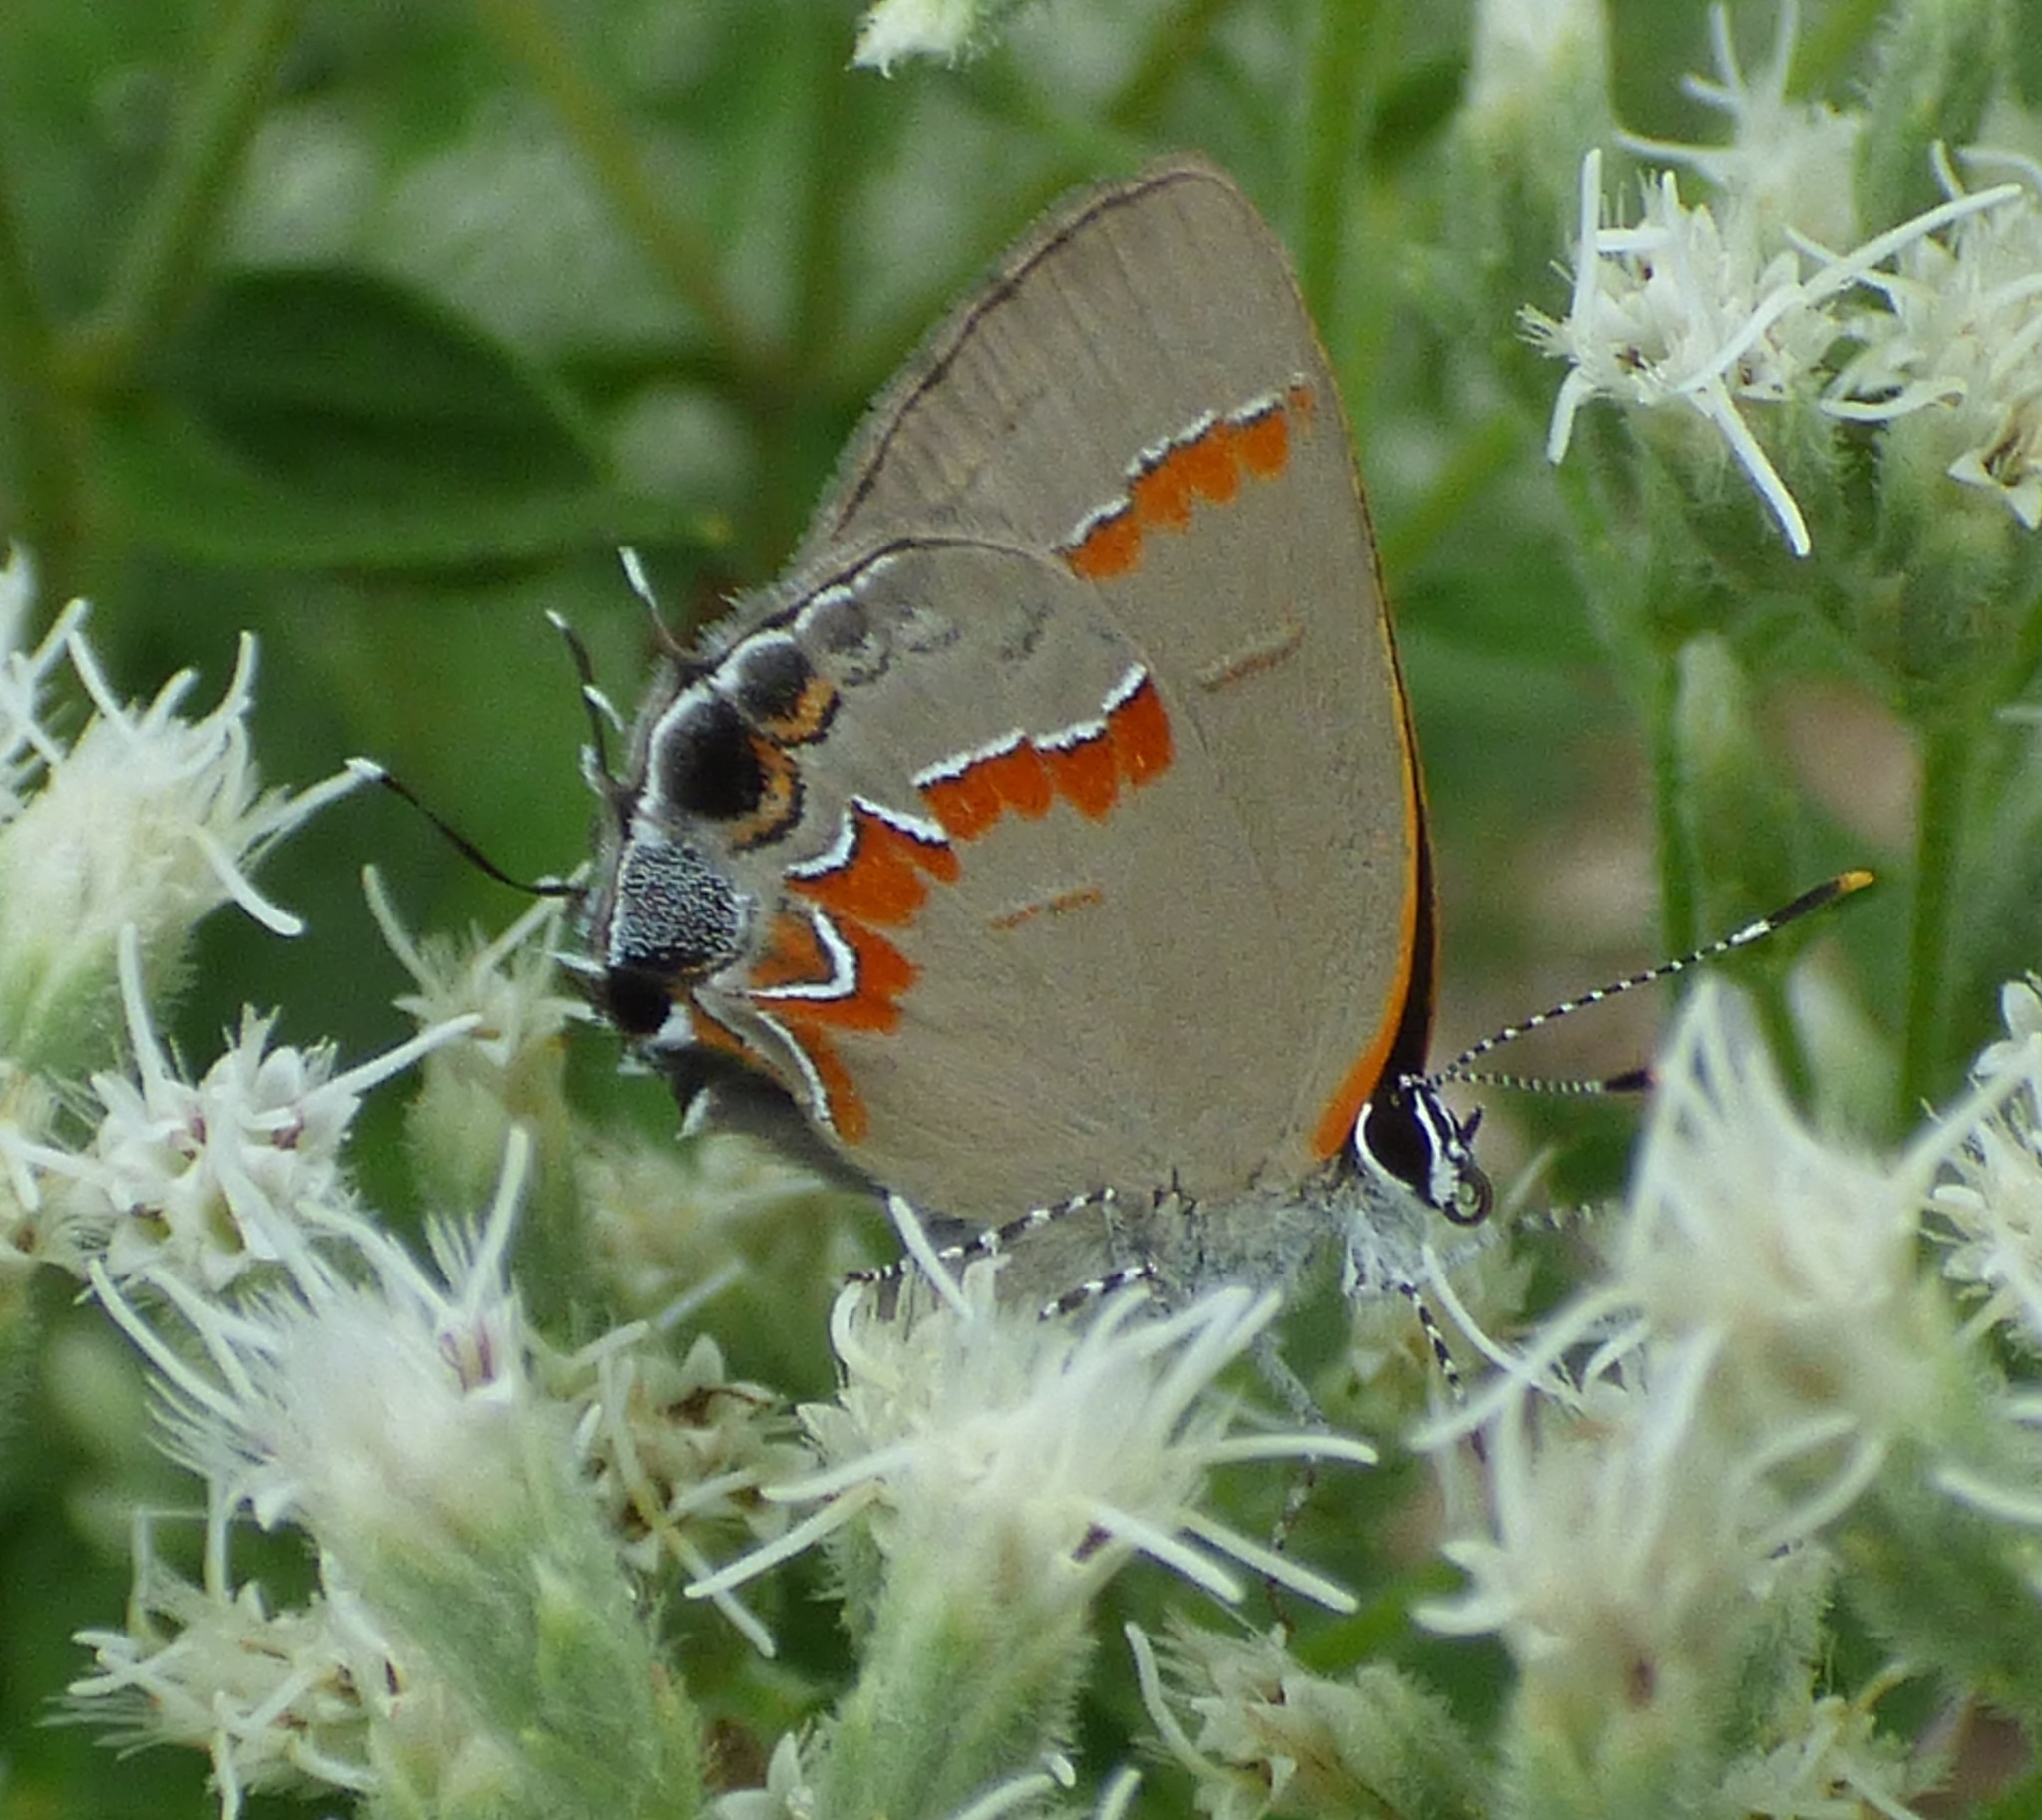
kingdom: Animalia
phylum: Arthropoda
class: Insecta
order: Lepidoptera
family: Lycaenidae
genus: Calycopis
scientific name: Calycopis cecrops
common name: Red-banded hairstreak
